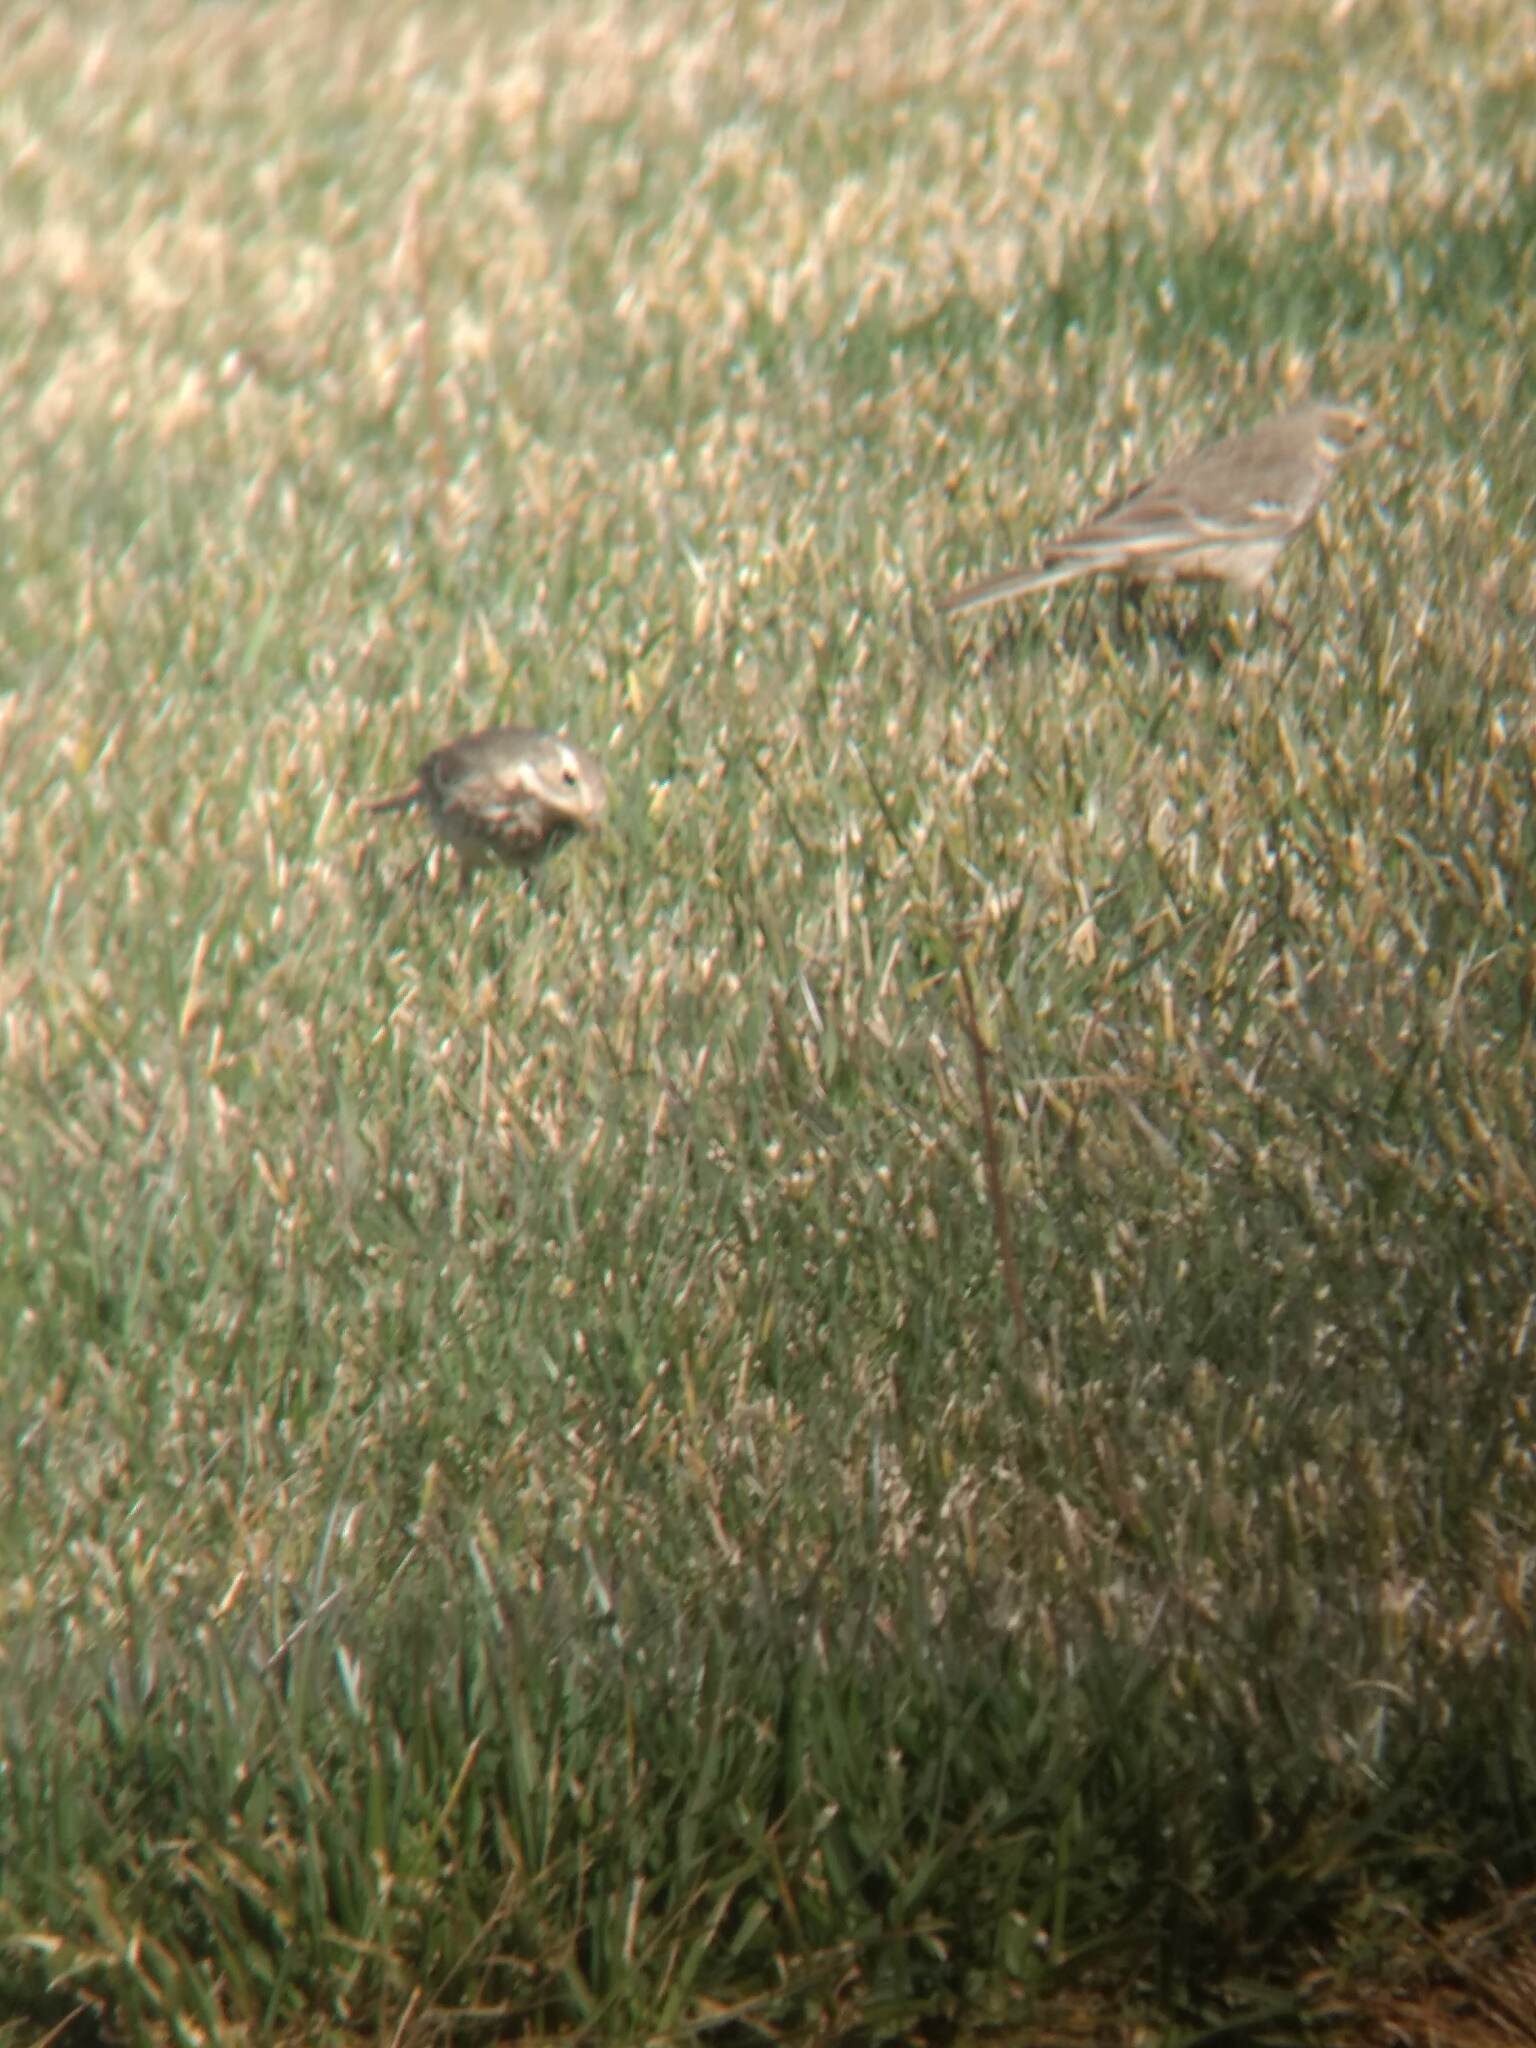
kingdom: Animalia
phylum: Chordata
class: Aves
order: Passeriformes
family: Motacillidae
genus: Anthus
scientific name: Anthus rubescens
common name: Buff-bellied pipit
